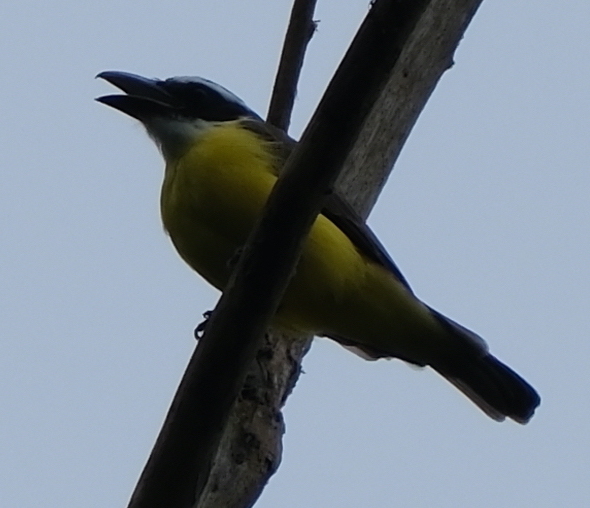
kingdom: Animalia
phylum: Chordata
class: Aves
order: Passeriformes
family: Tyrannidae
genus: Megarynchus
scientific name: Megarynchus pitangua
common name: Boat-billed flycatcher
